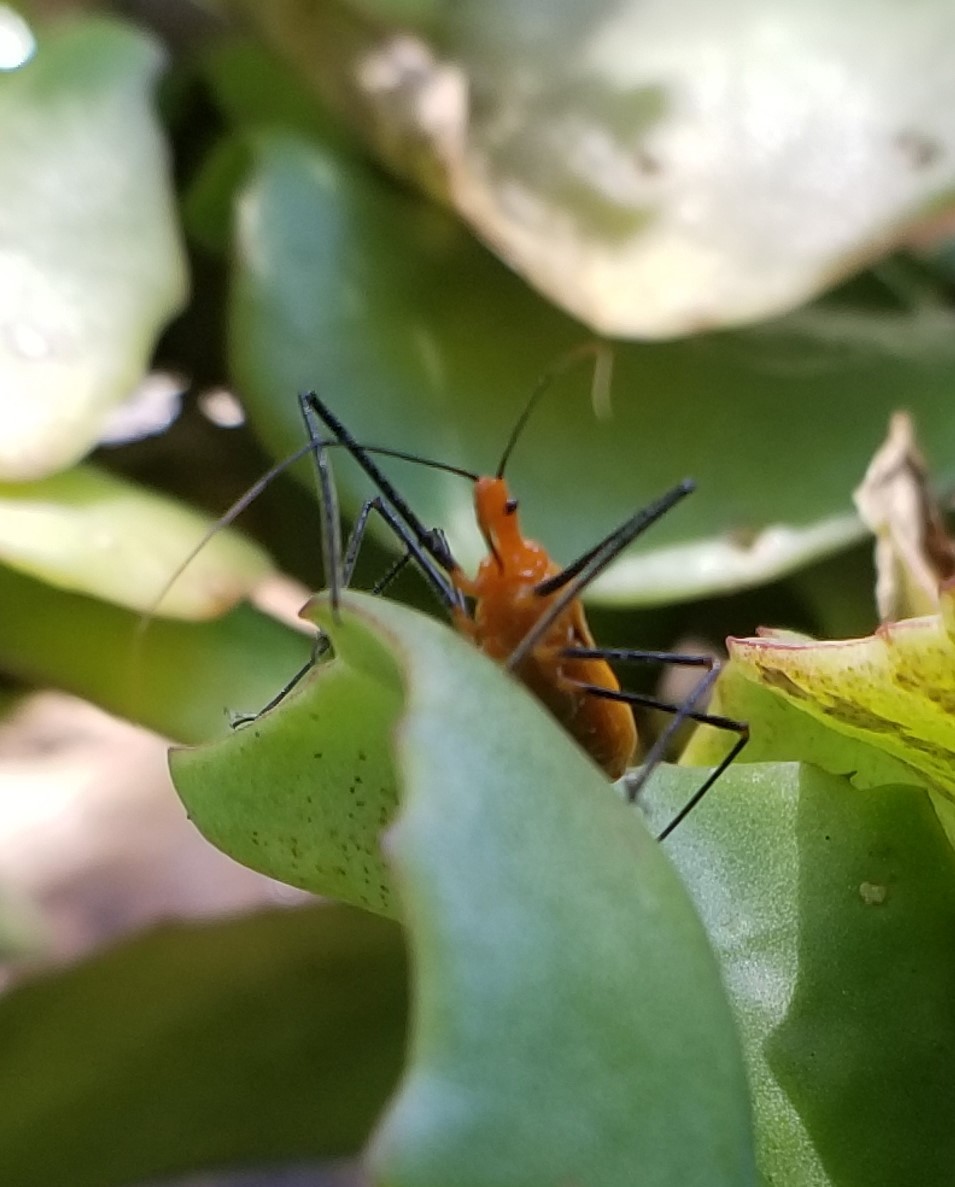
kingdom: Animalia
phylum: Arthropoda
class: Insecta
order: Hemiptera
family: Reduviidae
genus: Zelus
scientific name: Zelus longipes
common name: Milkweed assassin bug
